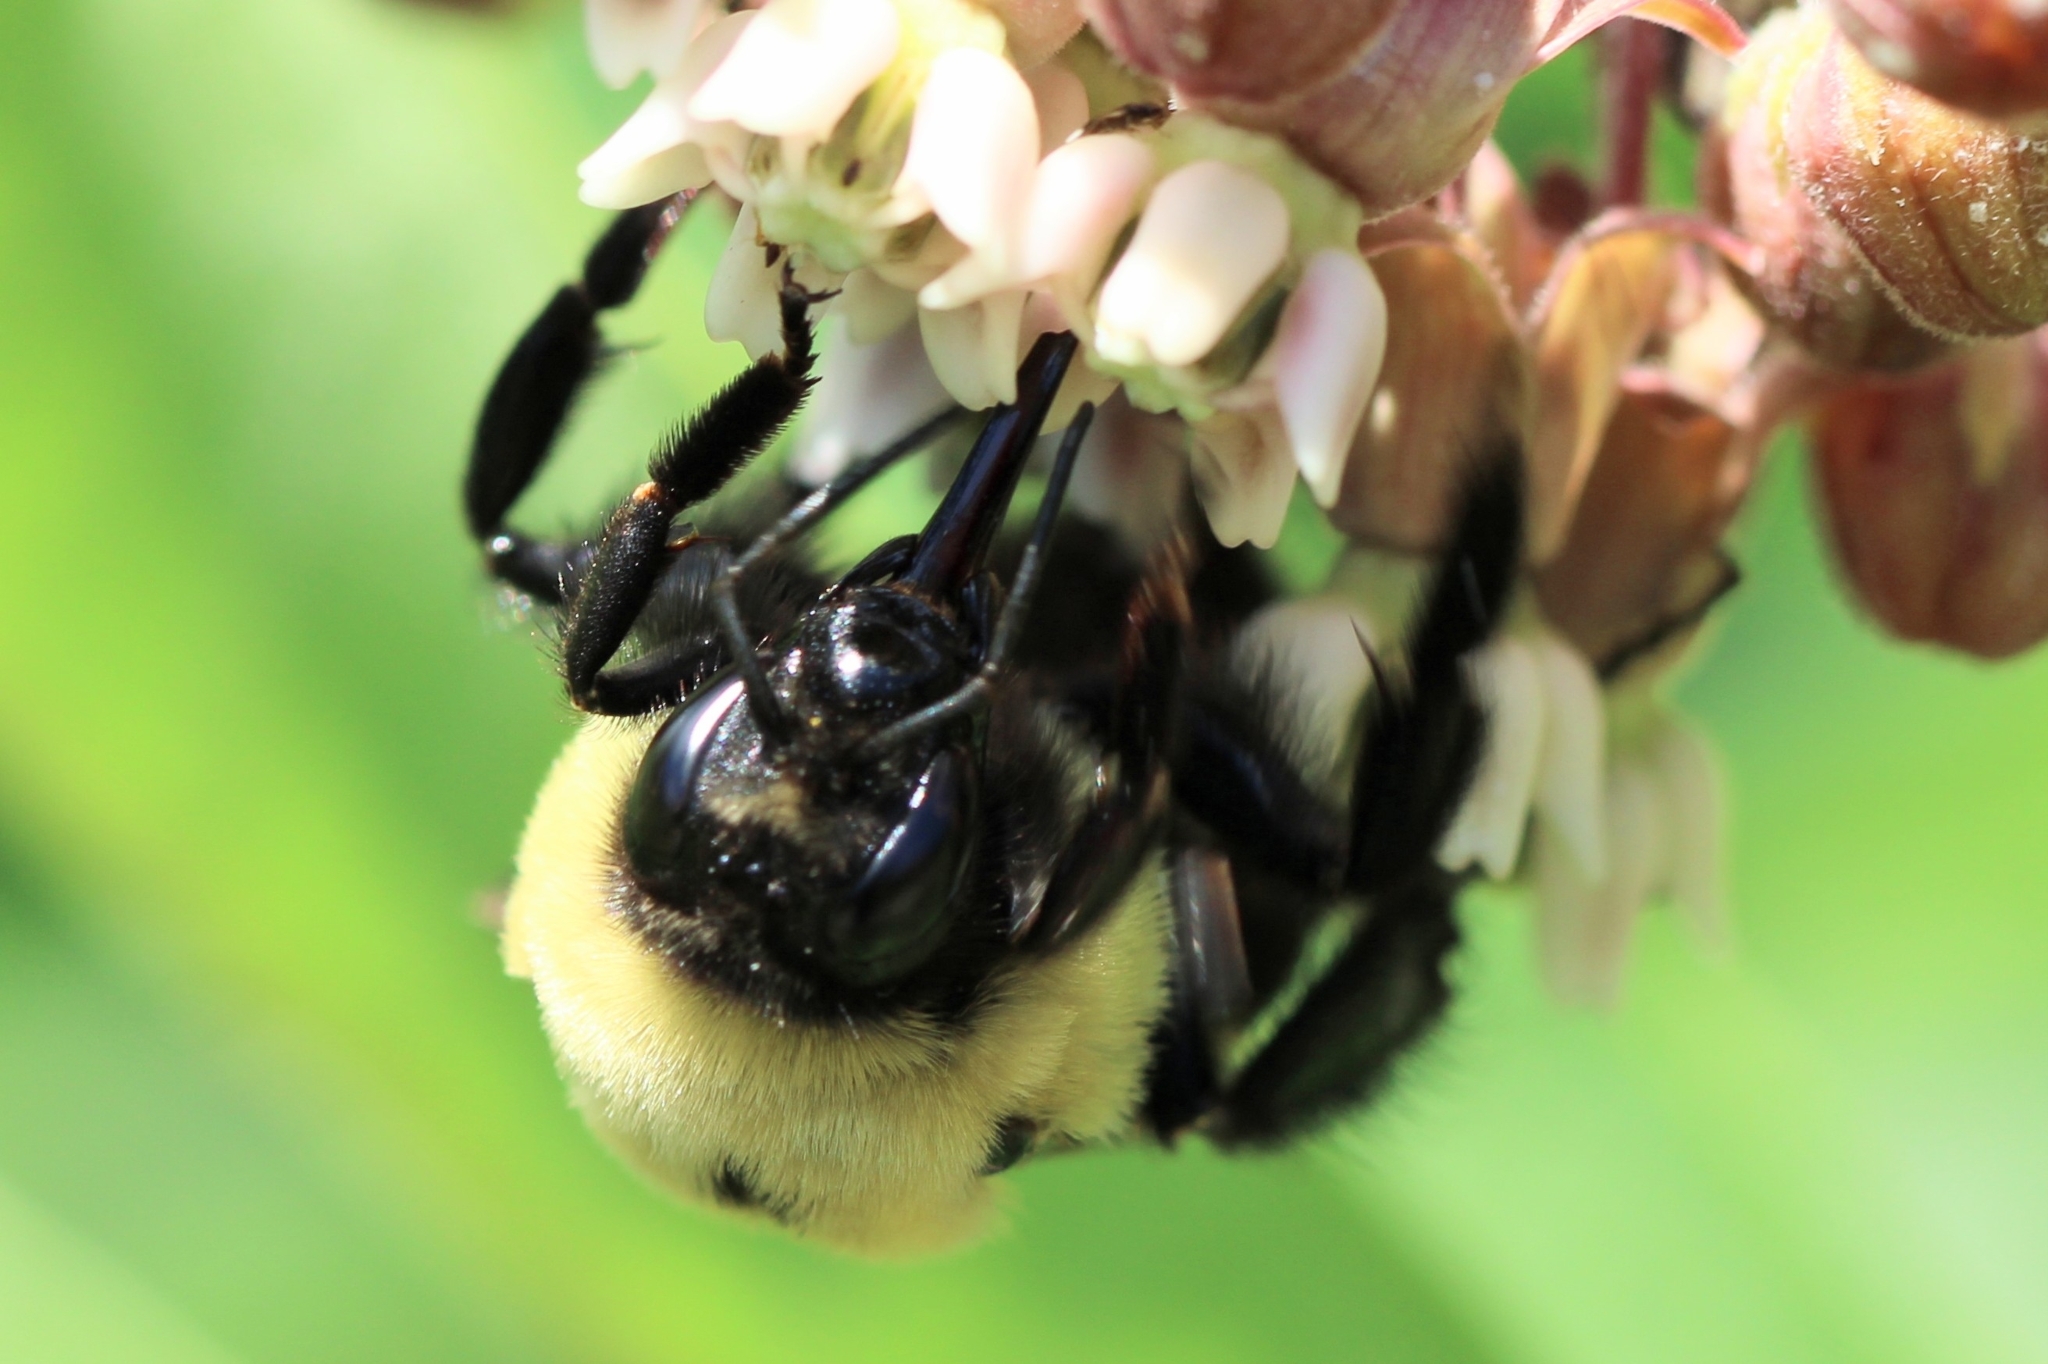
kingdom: Animalia
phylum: Arthropoda
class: Insecta
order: Hymenoptera
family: Apidae
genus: Bombus
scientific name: Bombus griseocollis
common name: Brown-belted bumble bee
